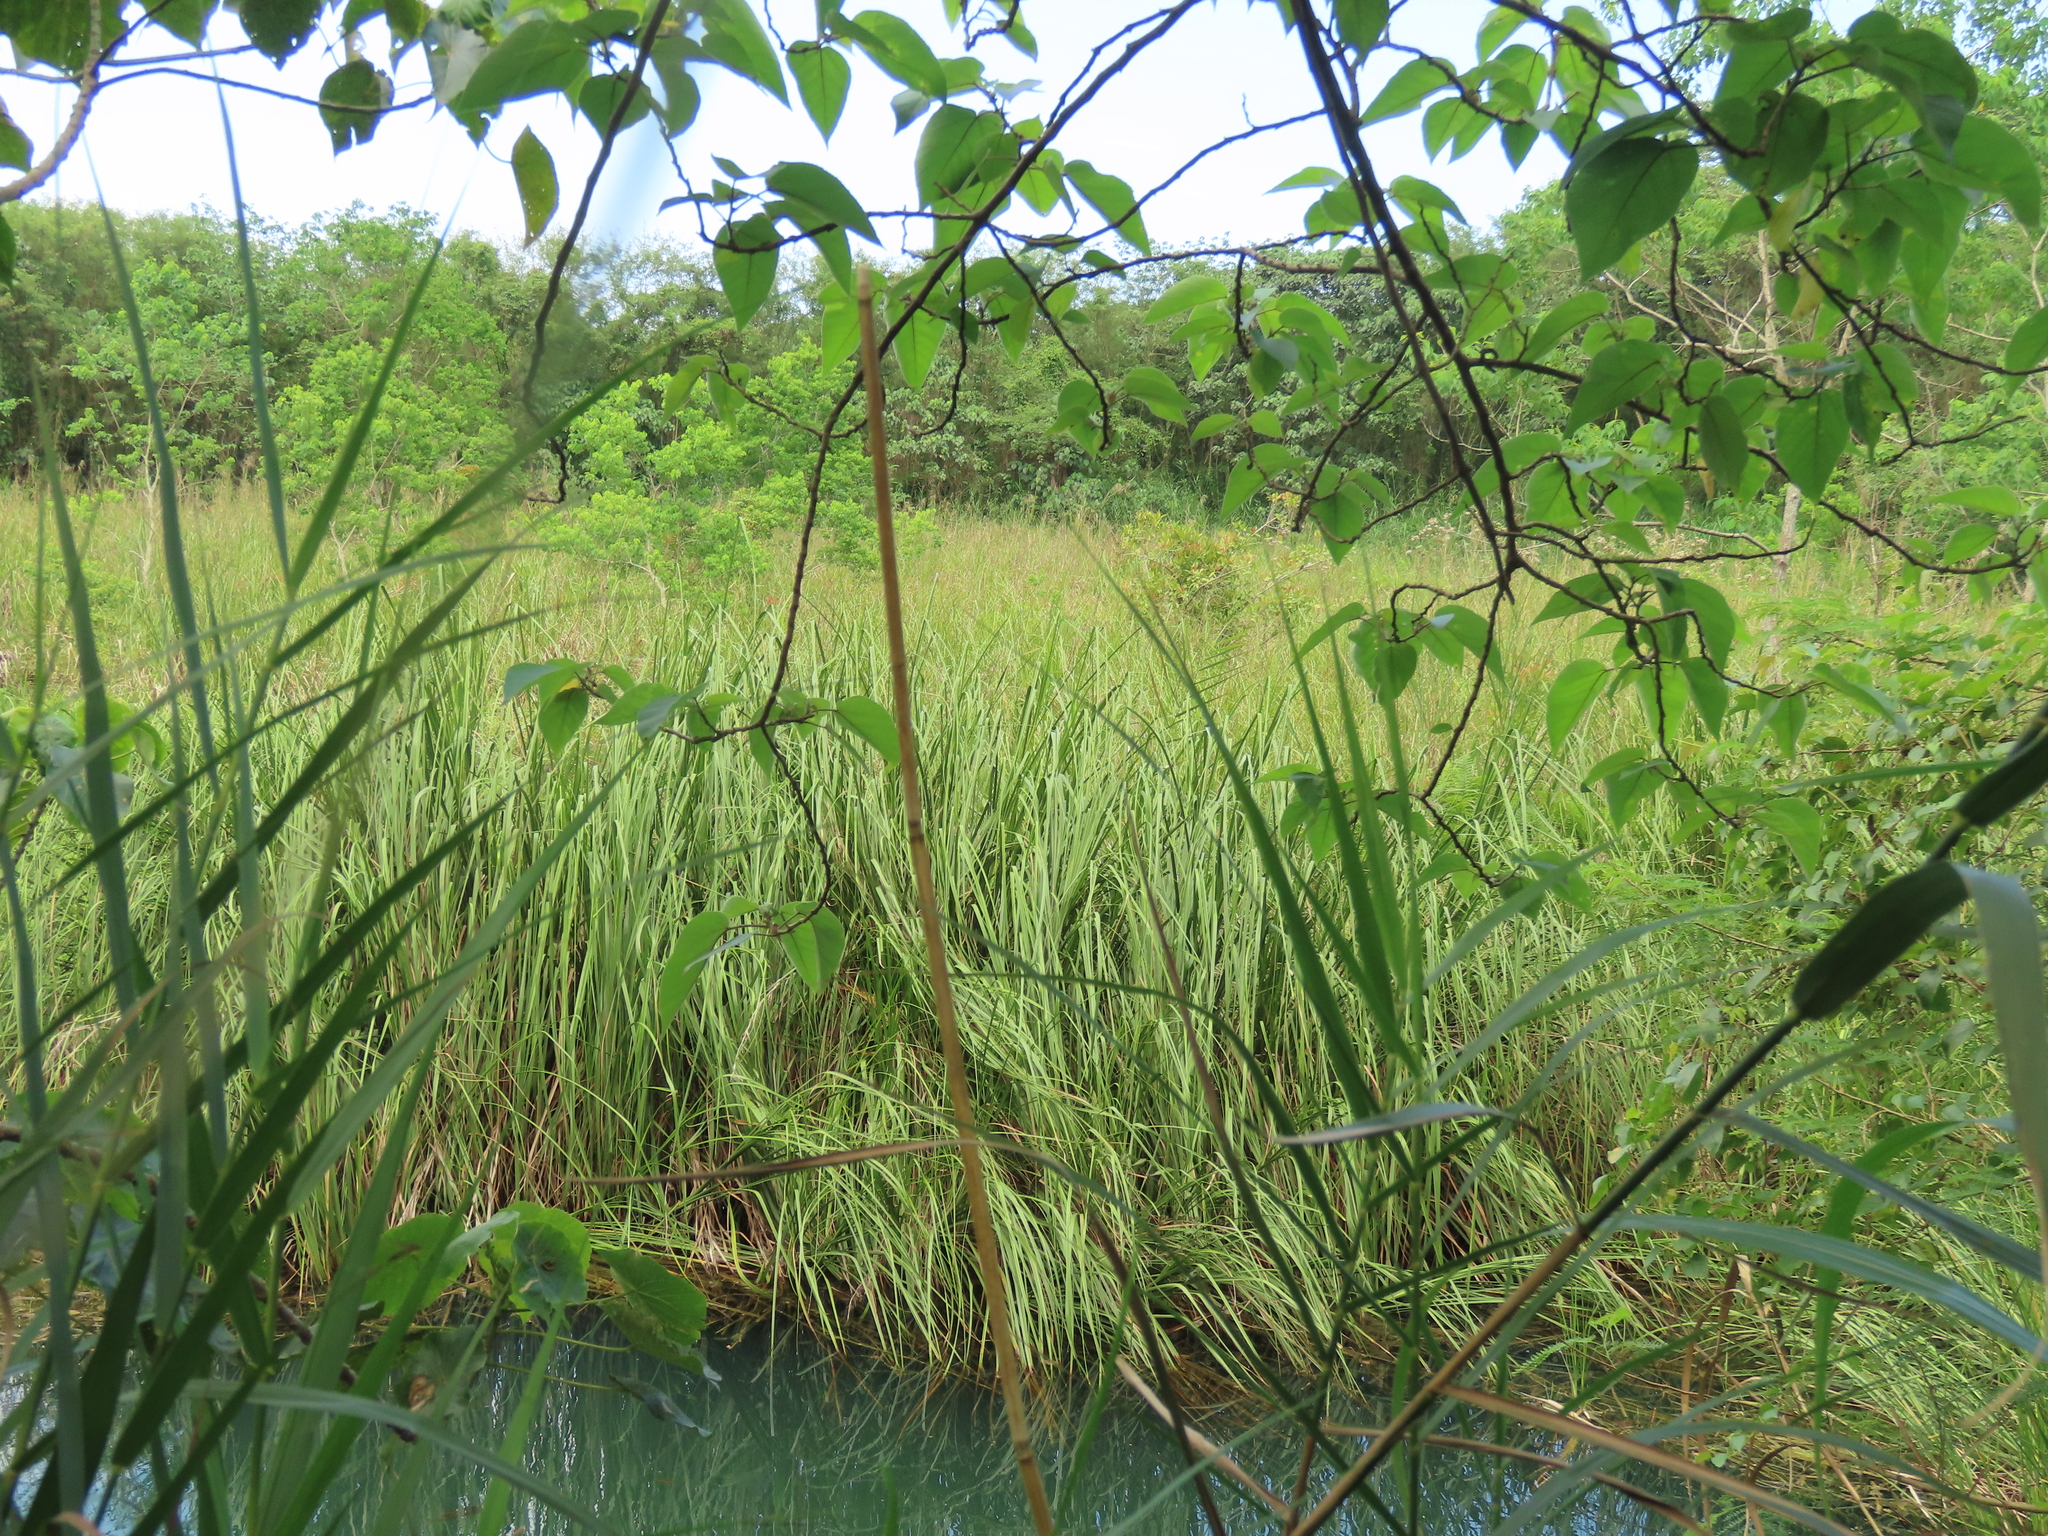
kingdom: Plantae
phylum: Tracheophyta
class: Liliopsida
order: Poales
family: Cyperaceae
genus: Cladium
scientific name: Cladium mariscus
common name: Great fen-sedge
